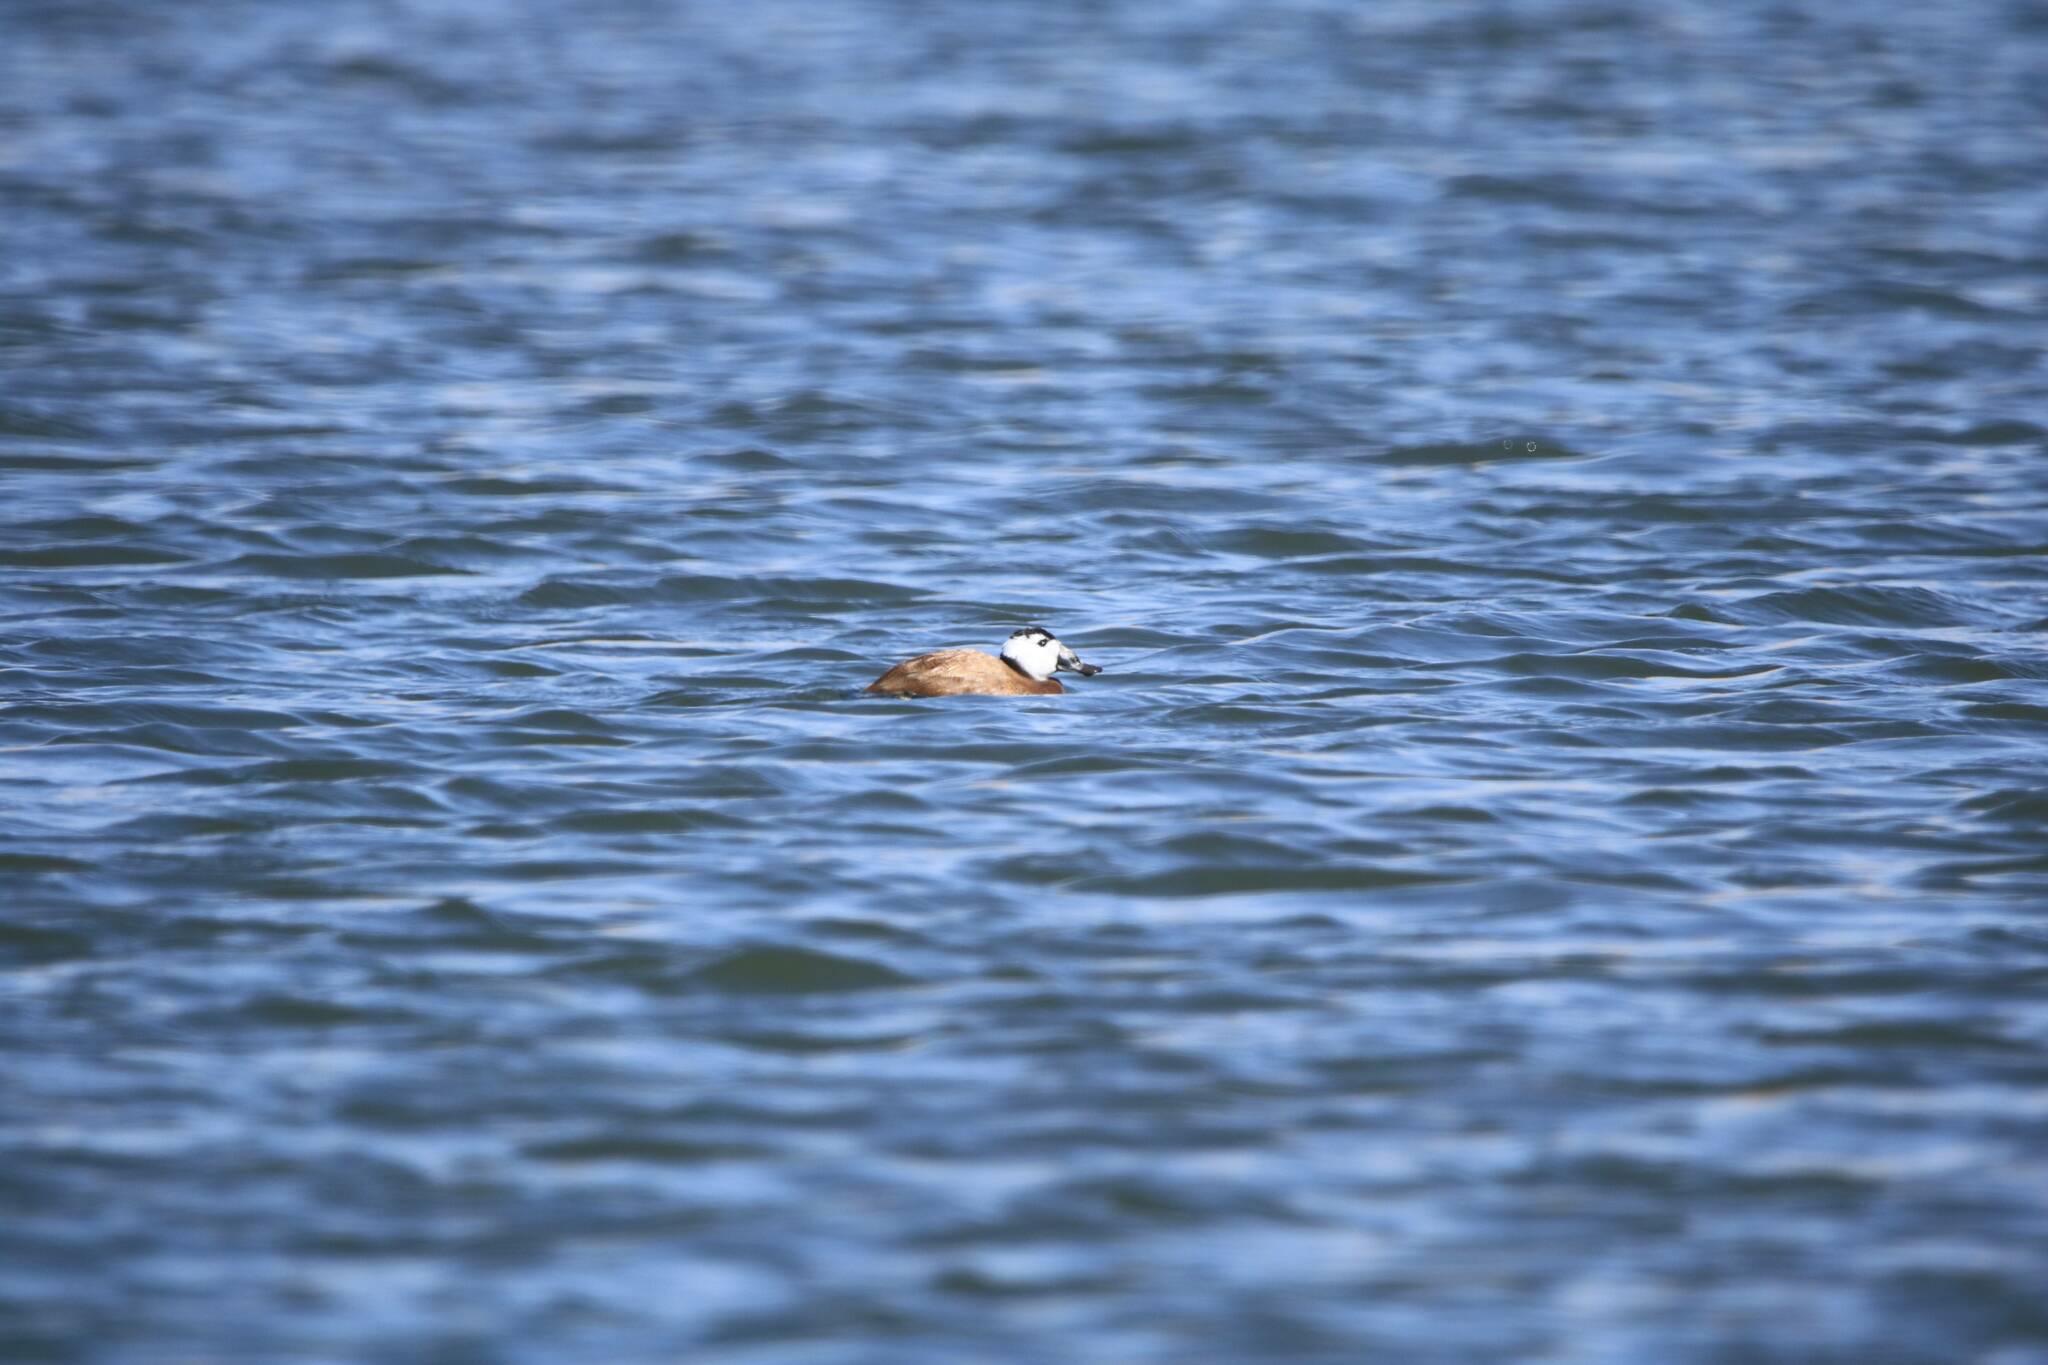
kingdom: Animalia
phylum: Chordata
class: Aves
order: Anseriformes
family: Anatidae
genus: Oxyura
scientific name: Oxyura leucocephala
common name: White-headed duck
